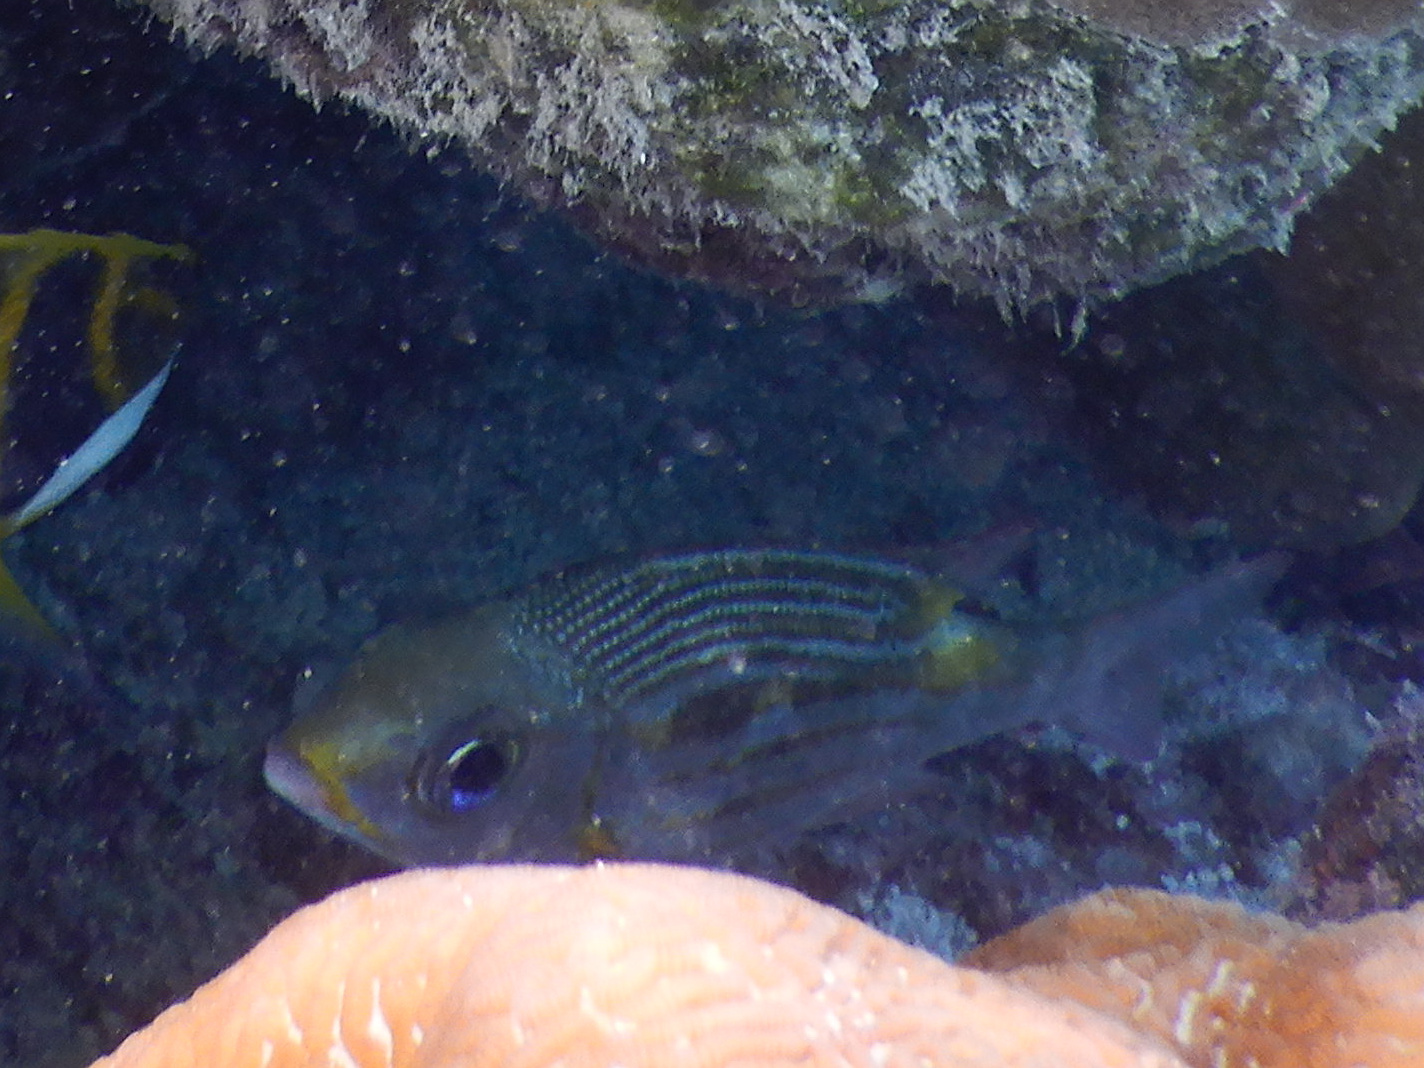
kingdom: Animalia
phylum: Chordata
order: Perciformes
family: Lethrinidae
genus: Gnathodentex
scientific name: Gnathodentex aureolineatus
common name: Gold-lined sea bream
